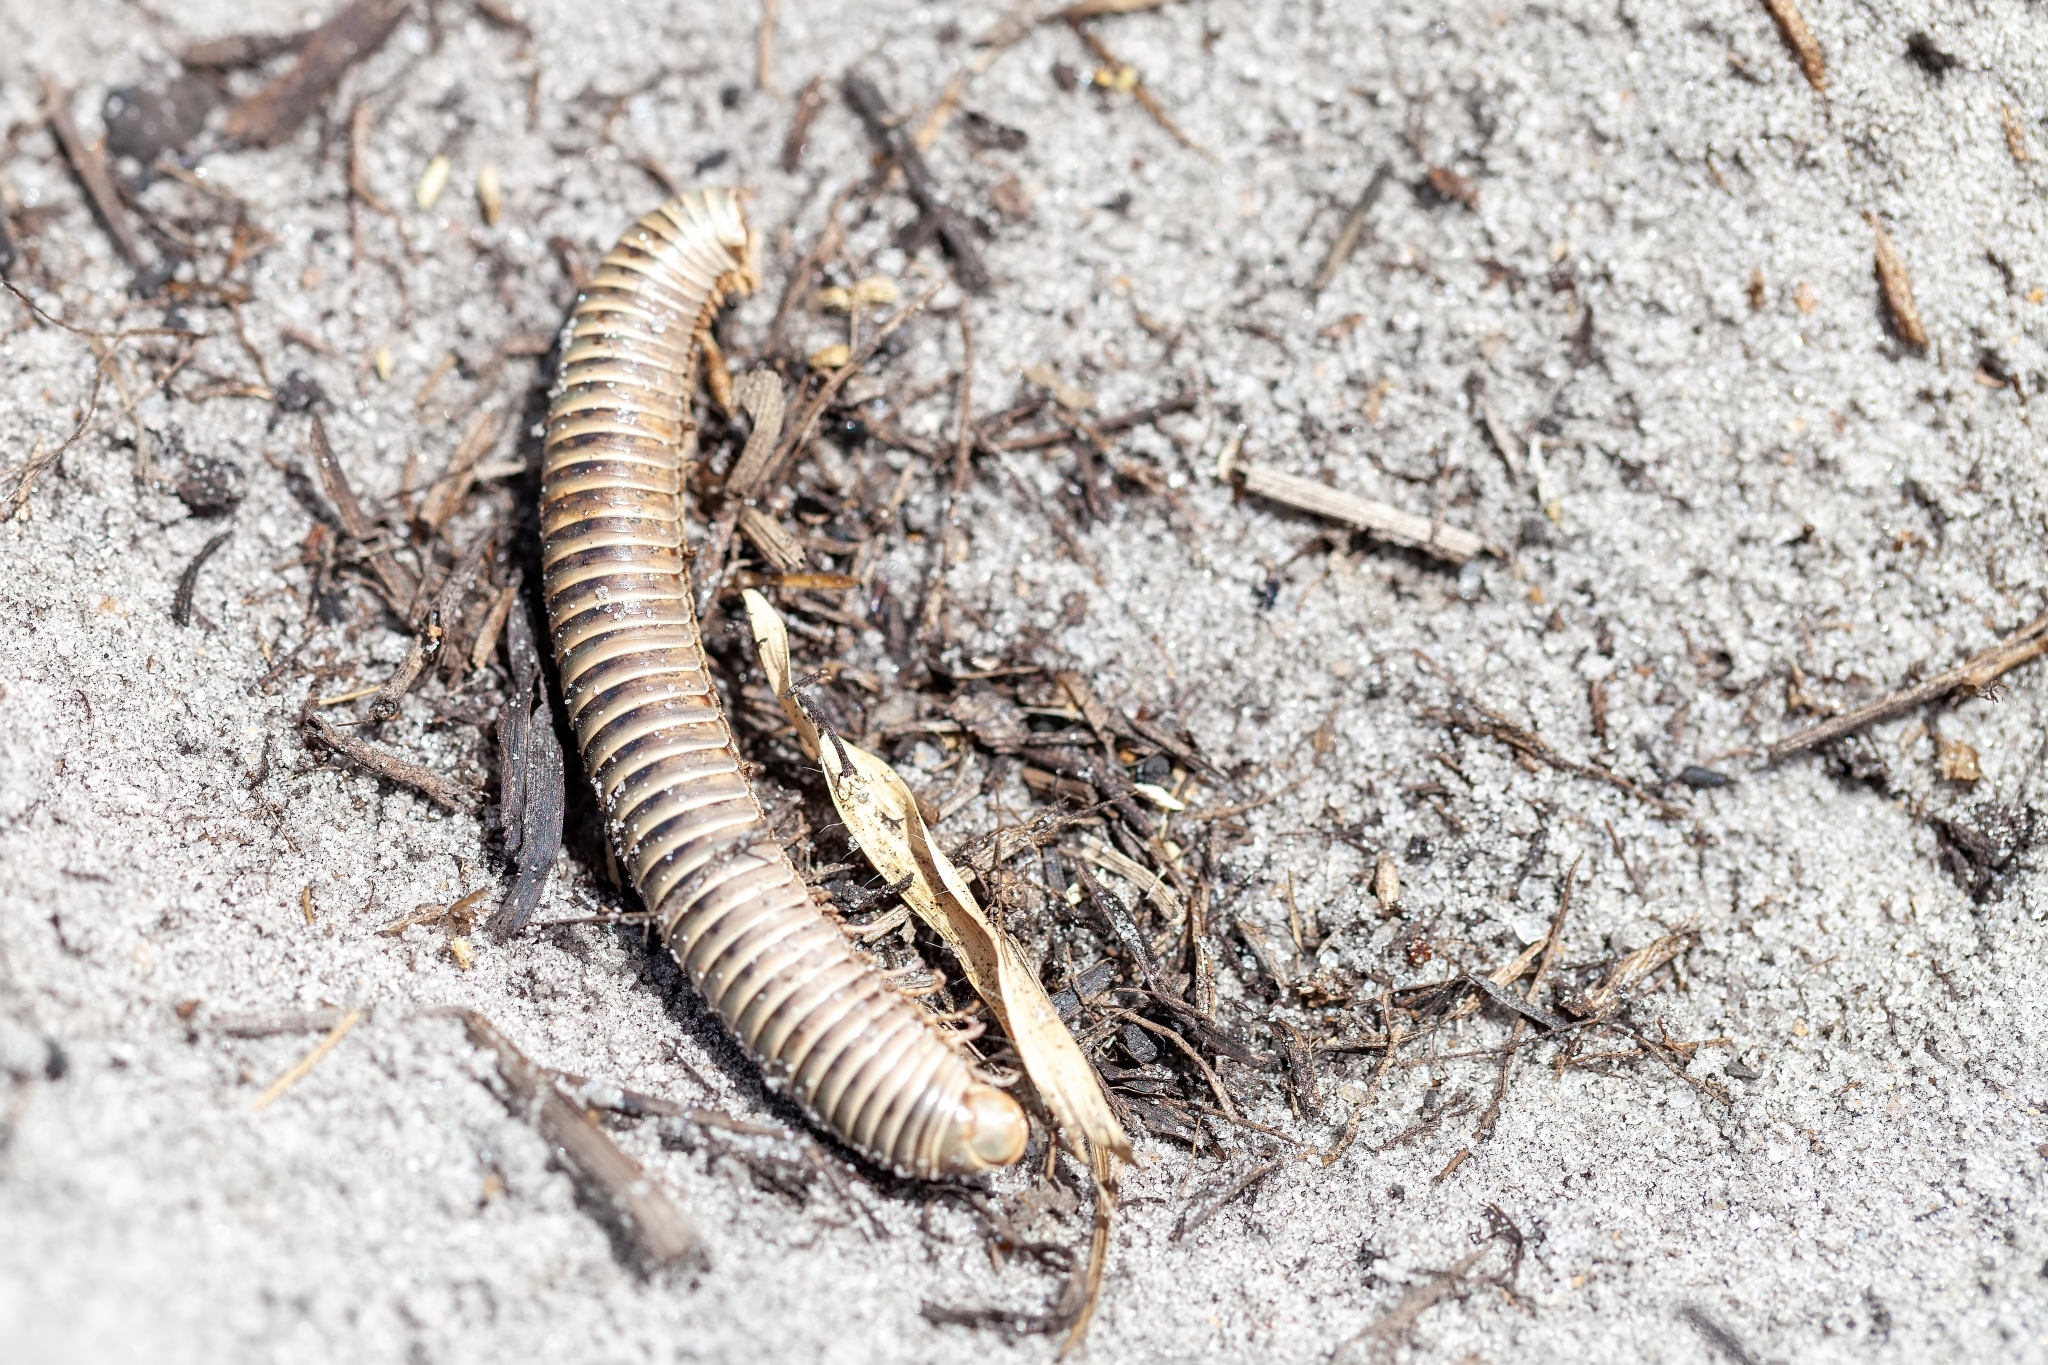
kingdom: Animalia
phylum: Arthropoda
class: Diplopoda
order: Spirobolida
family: Spirobolidae
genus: Chicobolus
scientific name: Chicobolus spinigerus
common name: Florida ivory millipede
